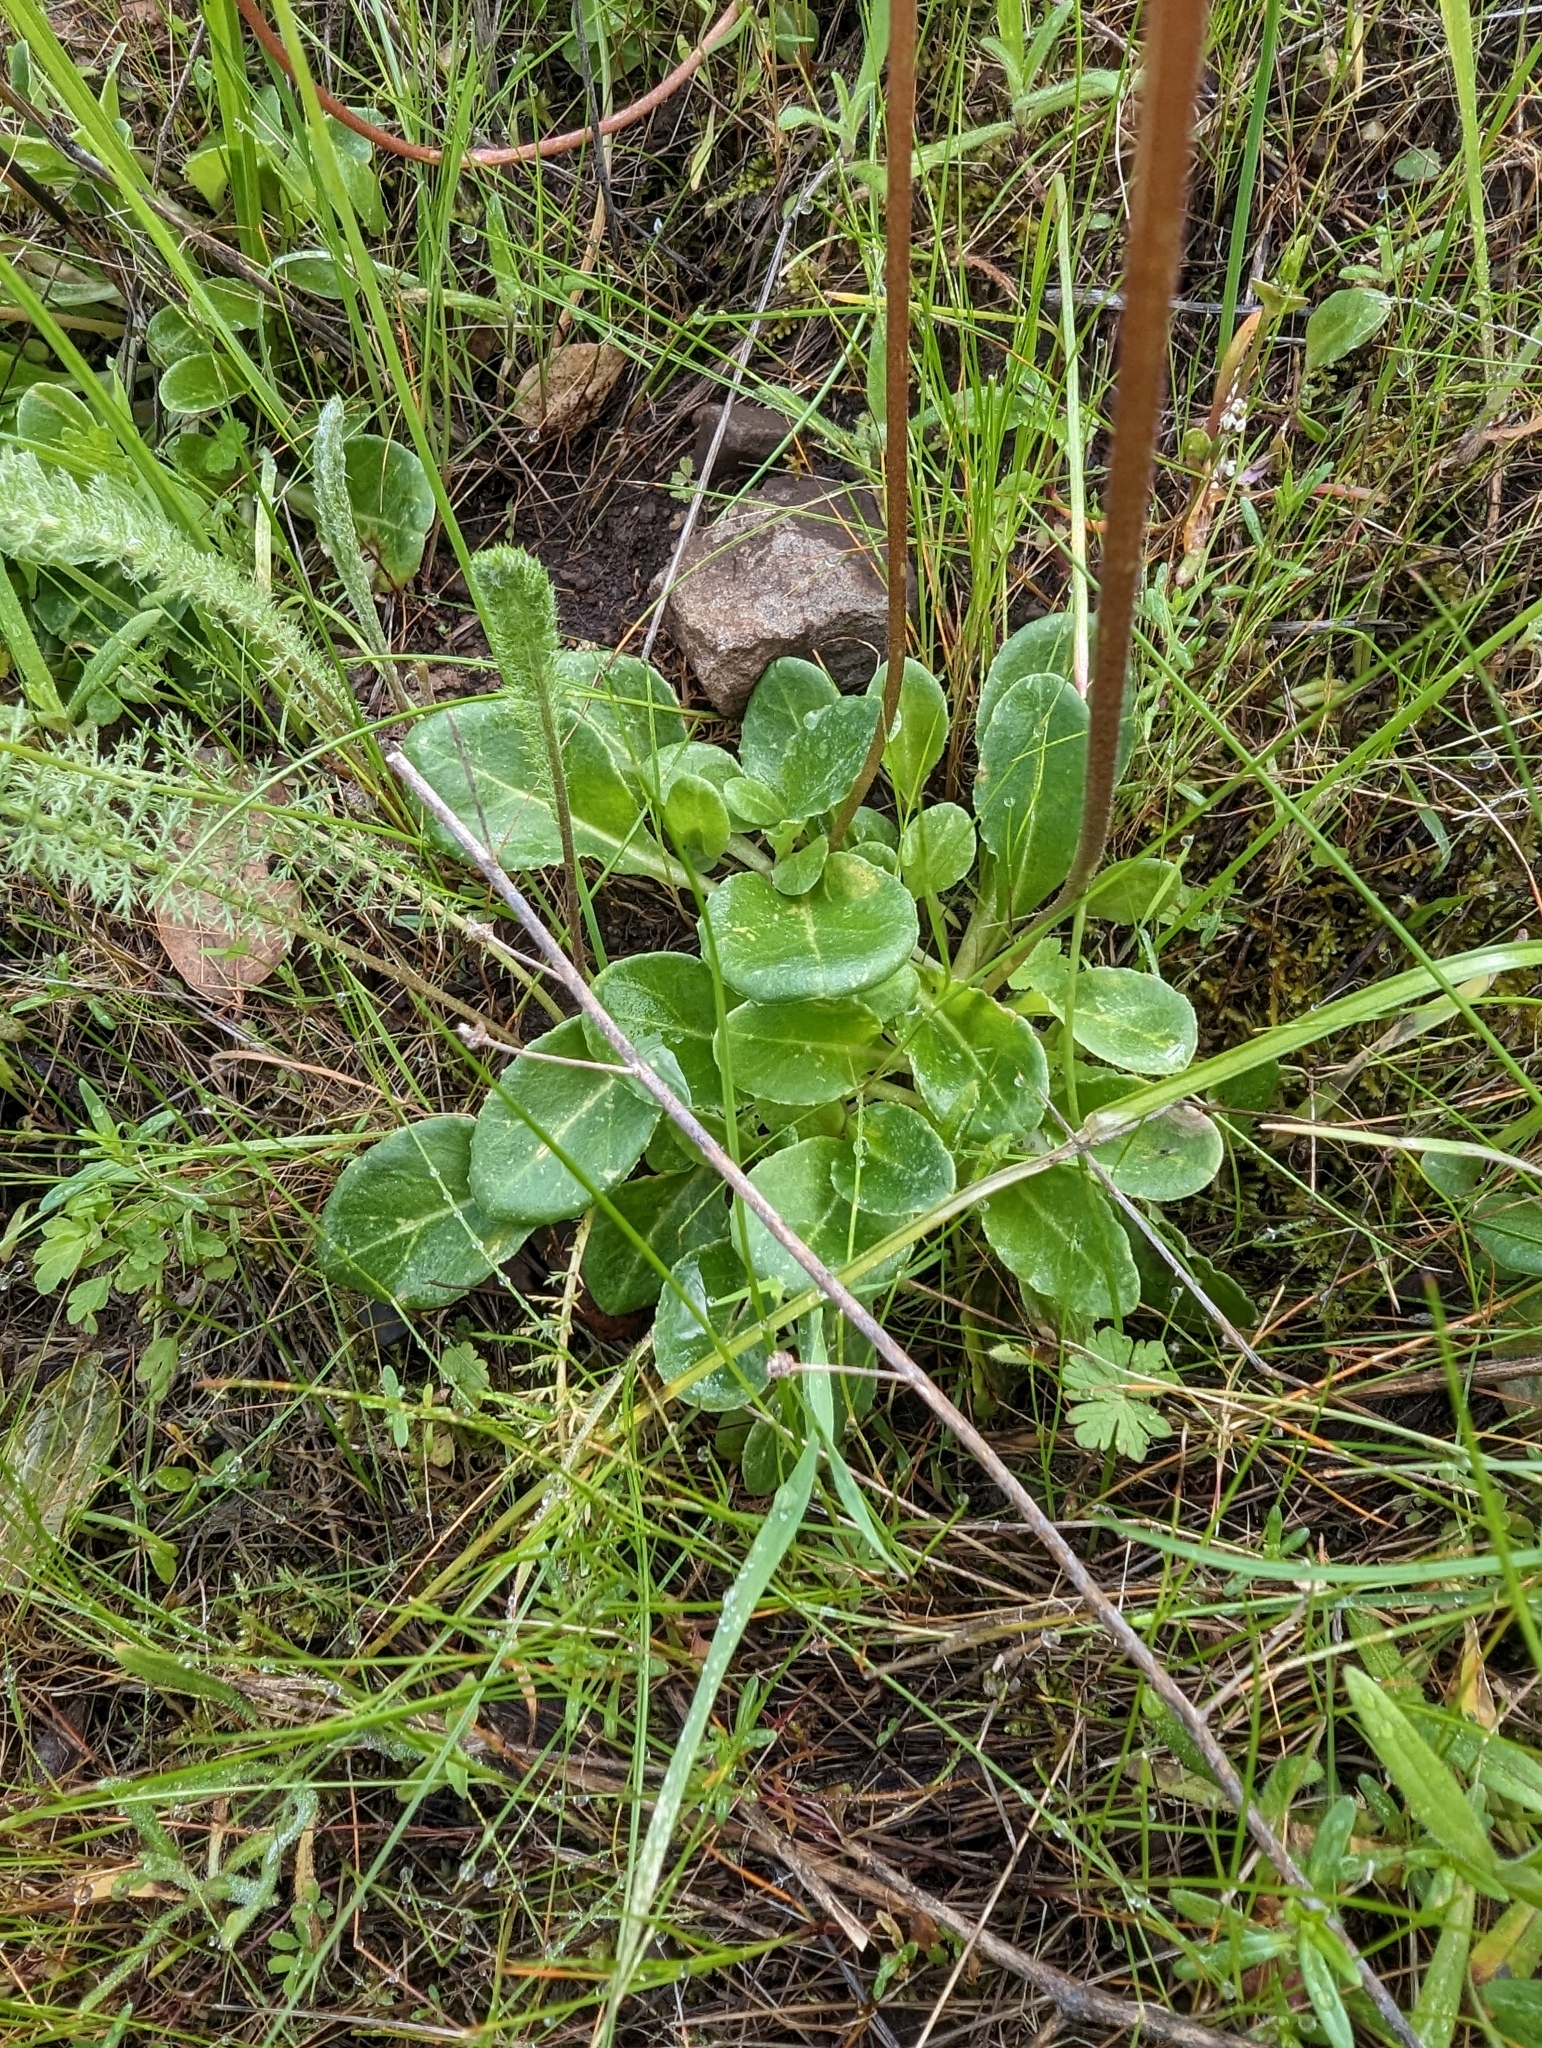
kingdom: Plantae
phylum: Tracheophyta
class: Magnoliopsida
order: Ericales
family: Primulaceae
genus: Dodecatheon
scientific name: Dodecatheon hendersonii
